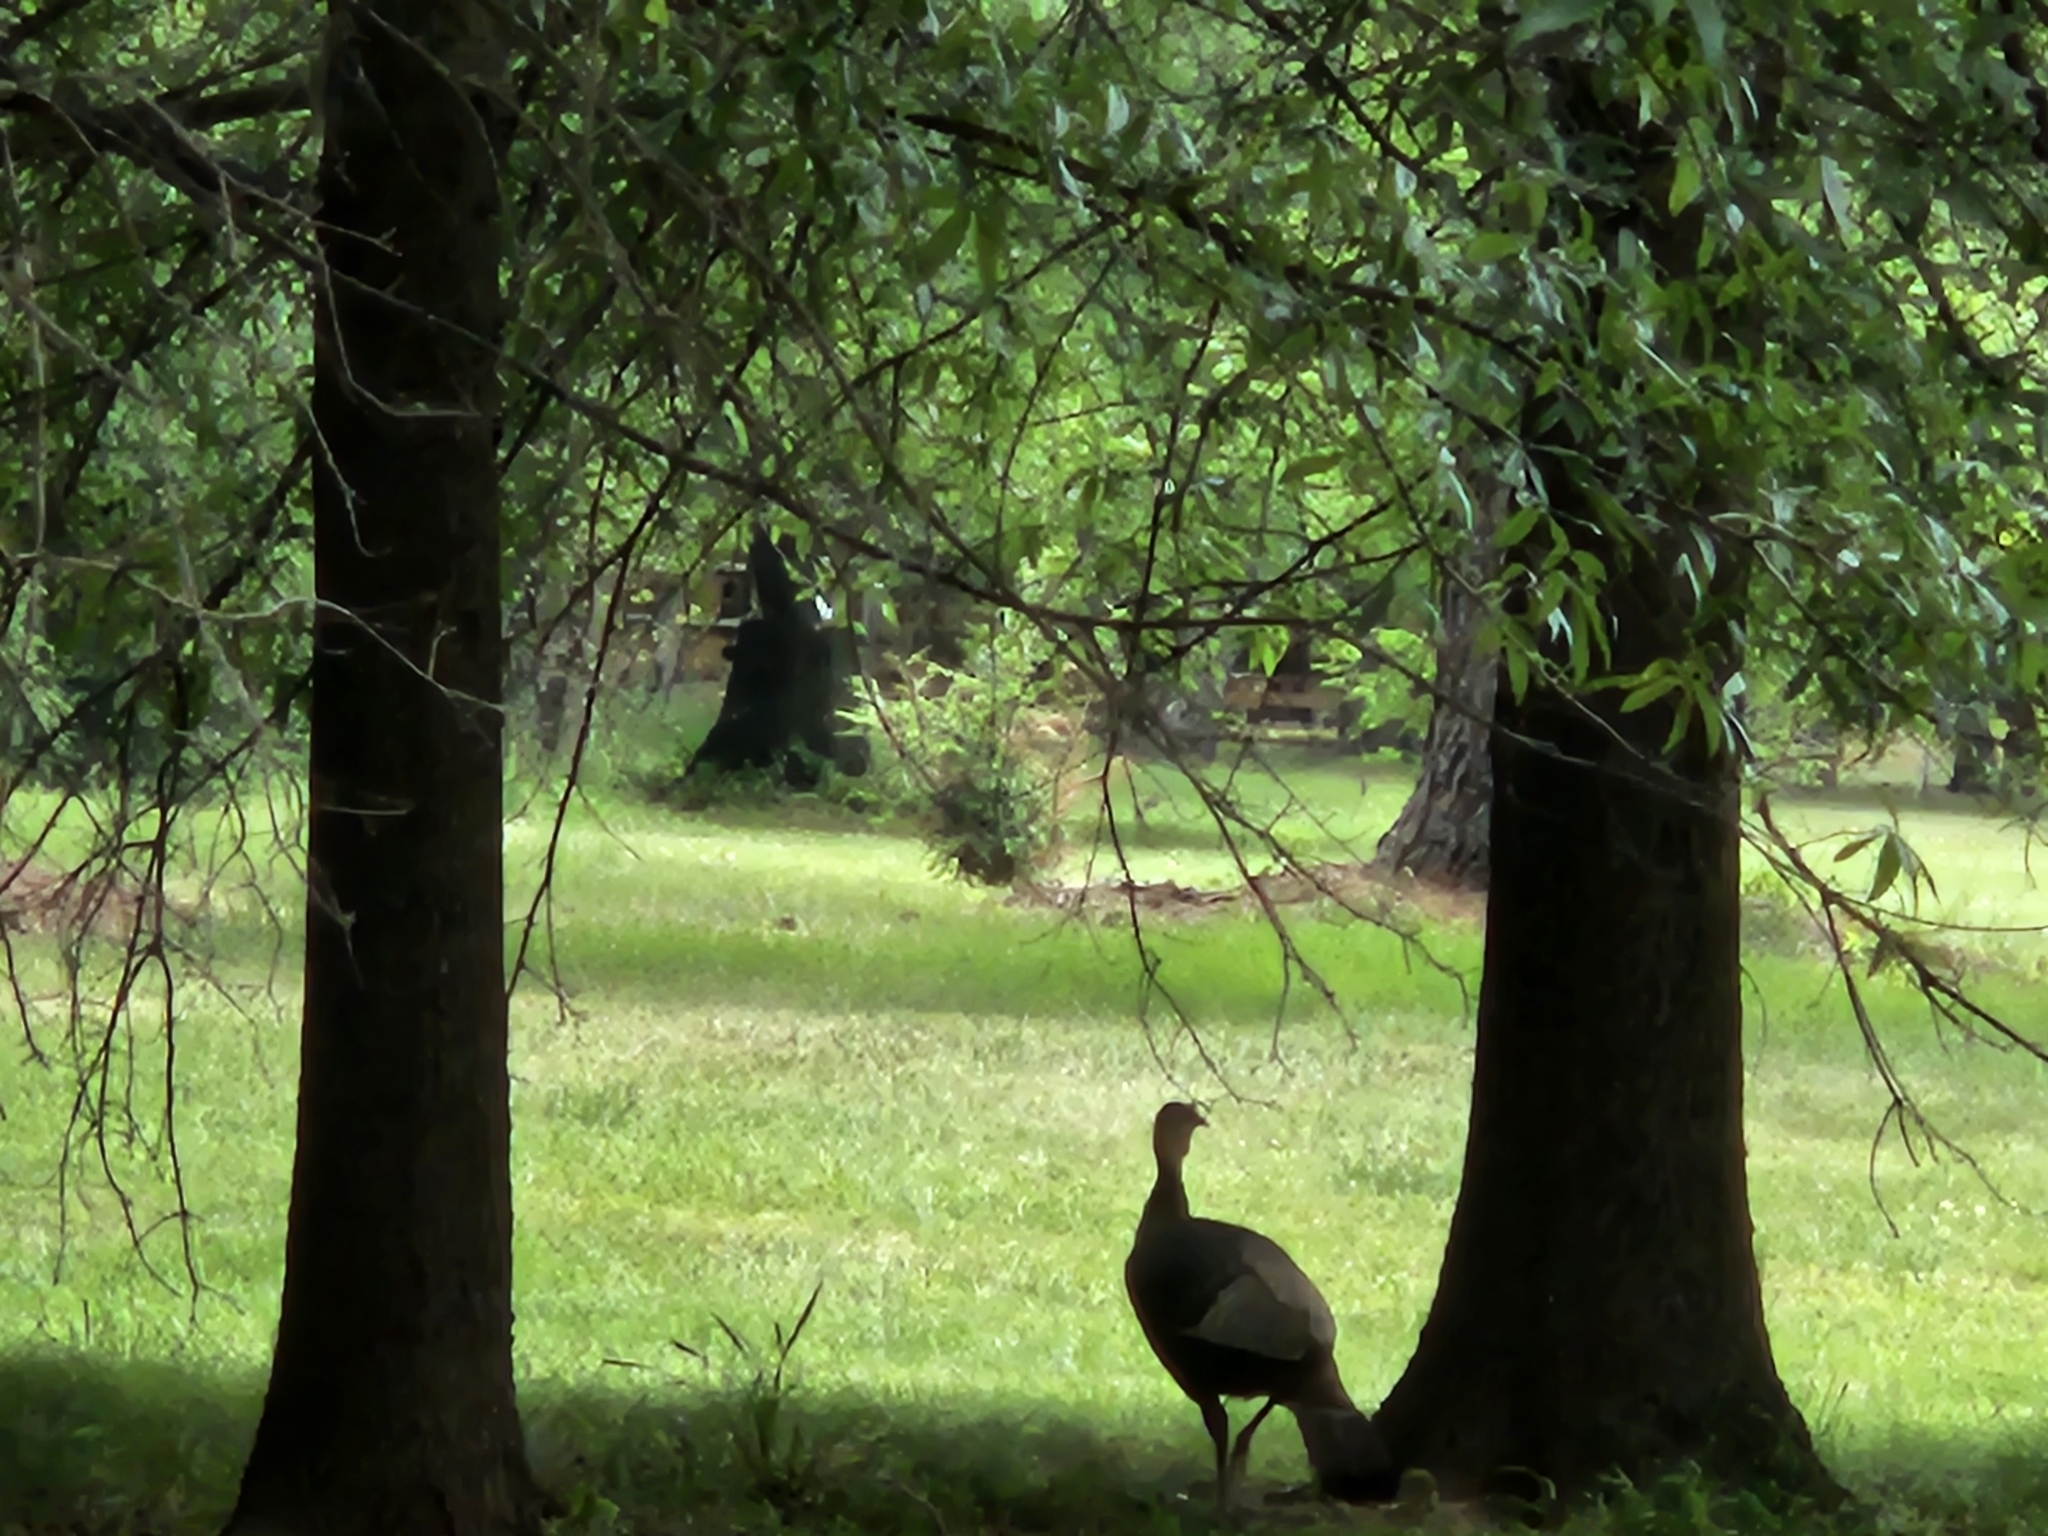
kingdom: Animalia
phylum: Chordata
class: Aves
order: Galliformes
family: Phasianidae
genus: Meleagris
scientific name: Meleagris gallopavo
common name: Wild turkey
